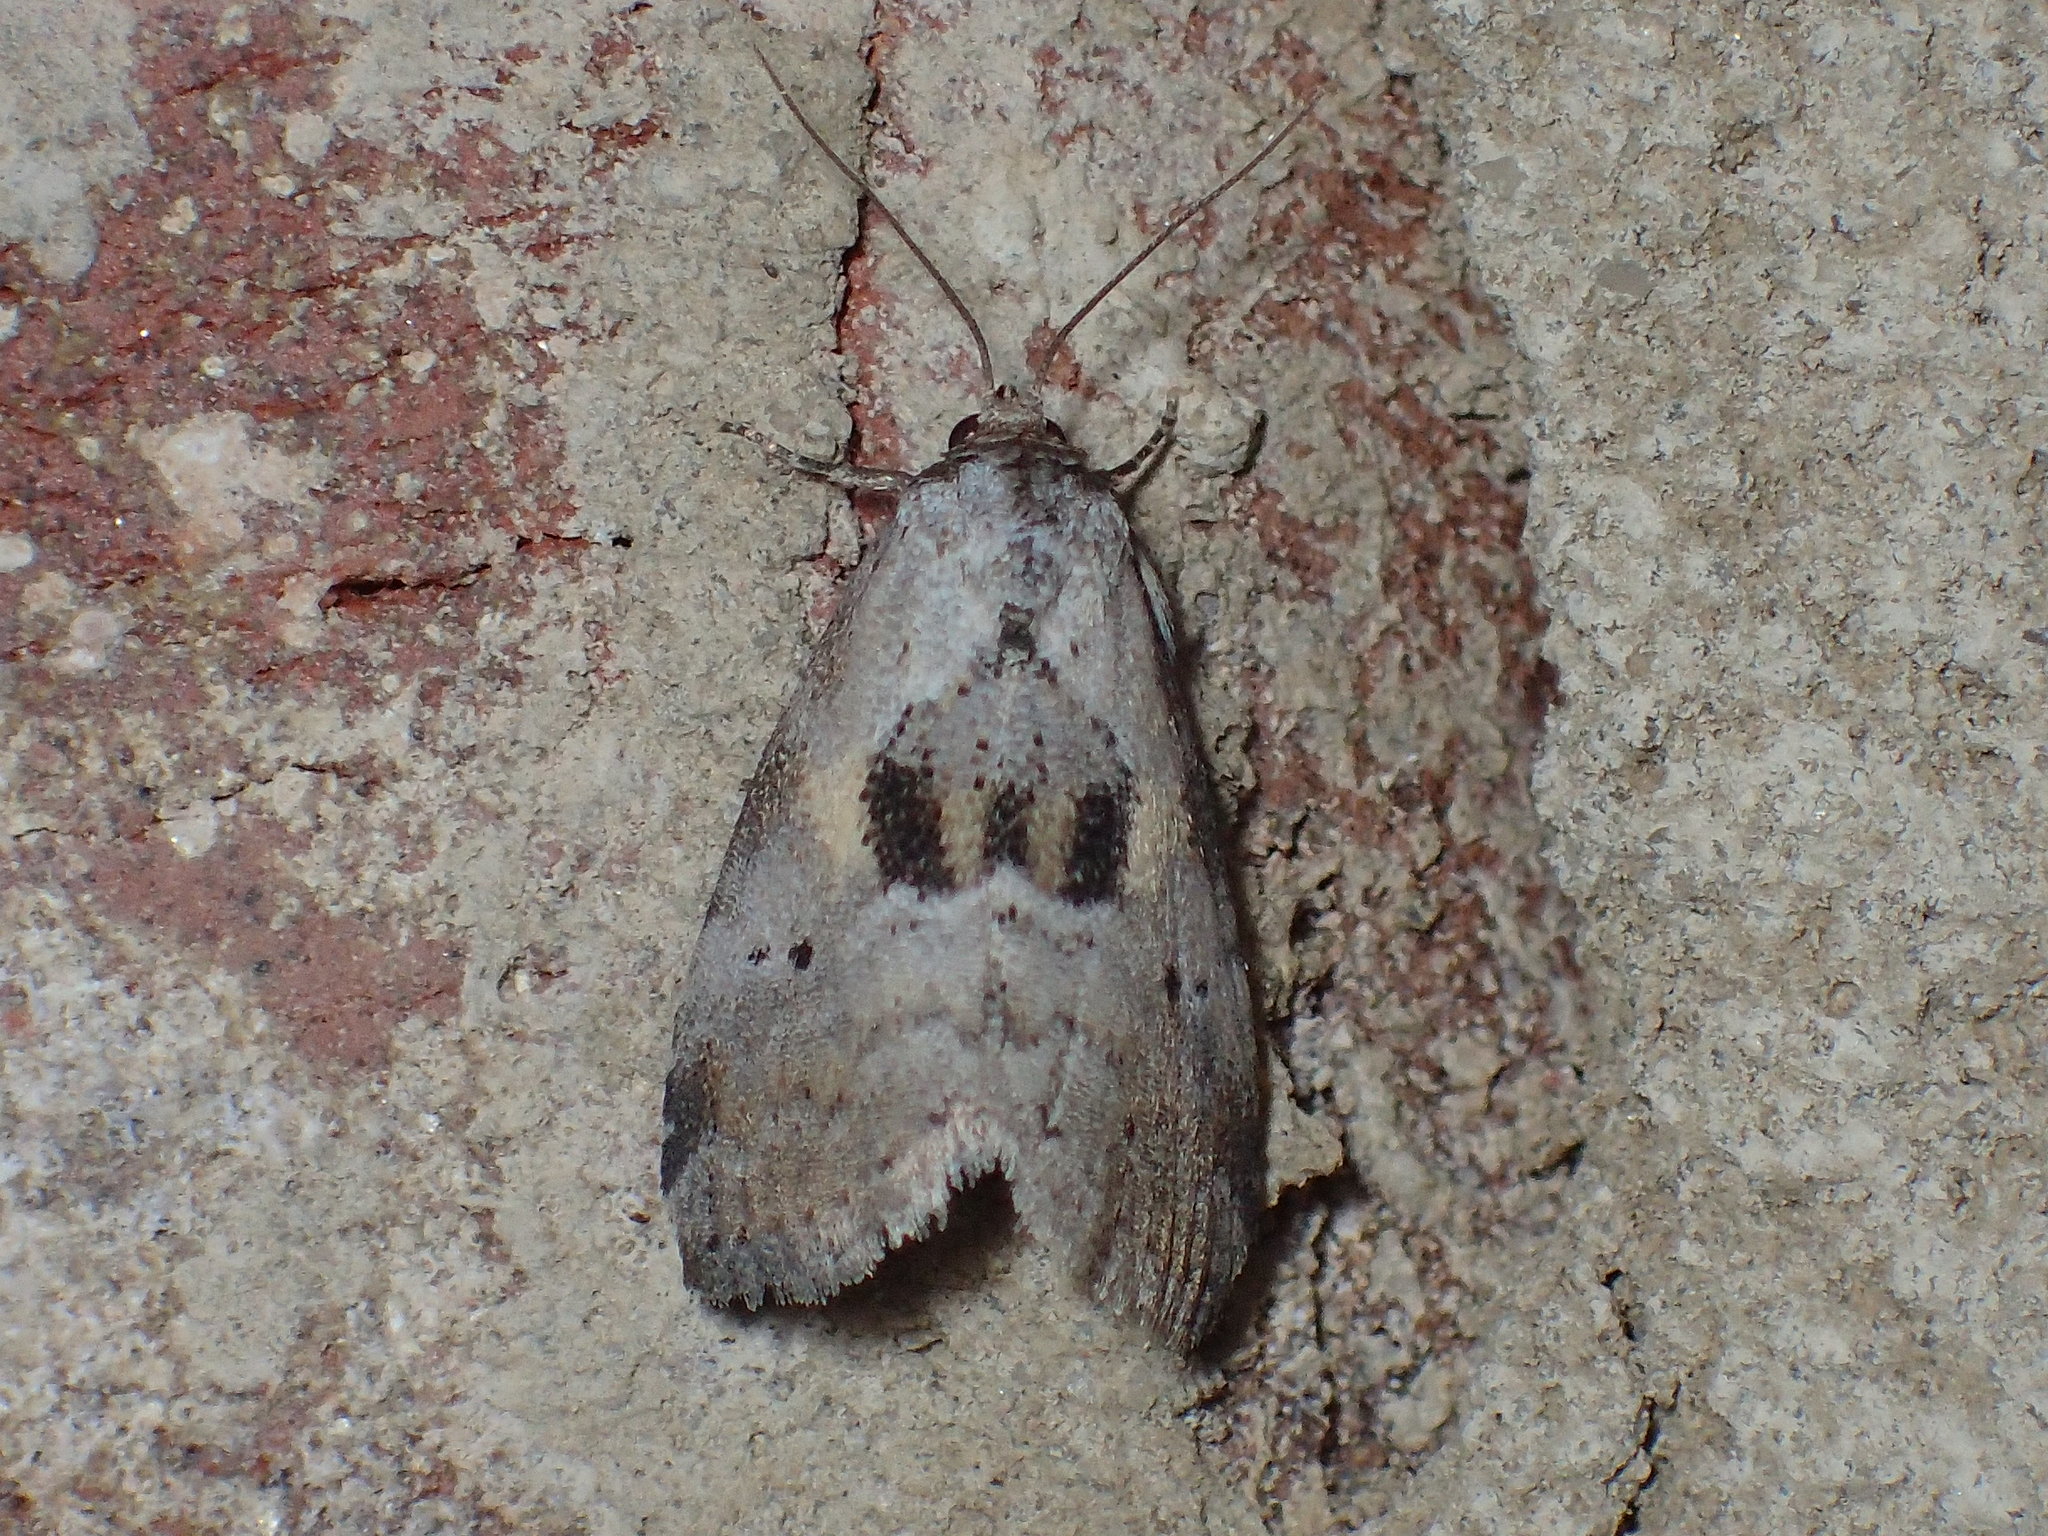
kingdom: Animalia
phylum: Arthropoda
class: Insecta
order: Lepidoptera
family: Erebidae
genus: Hyperstrotia
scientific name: Hyperstrotia secta
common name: Black-patched graylet
